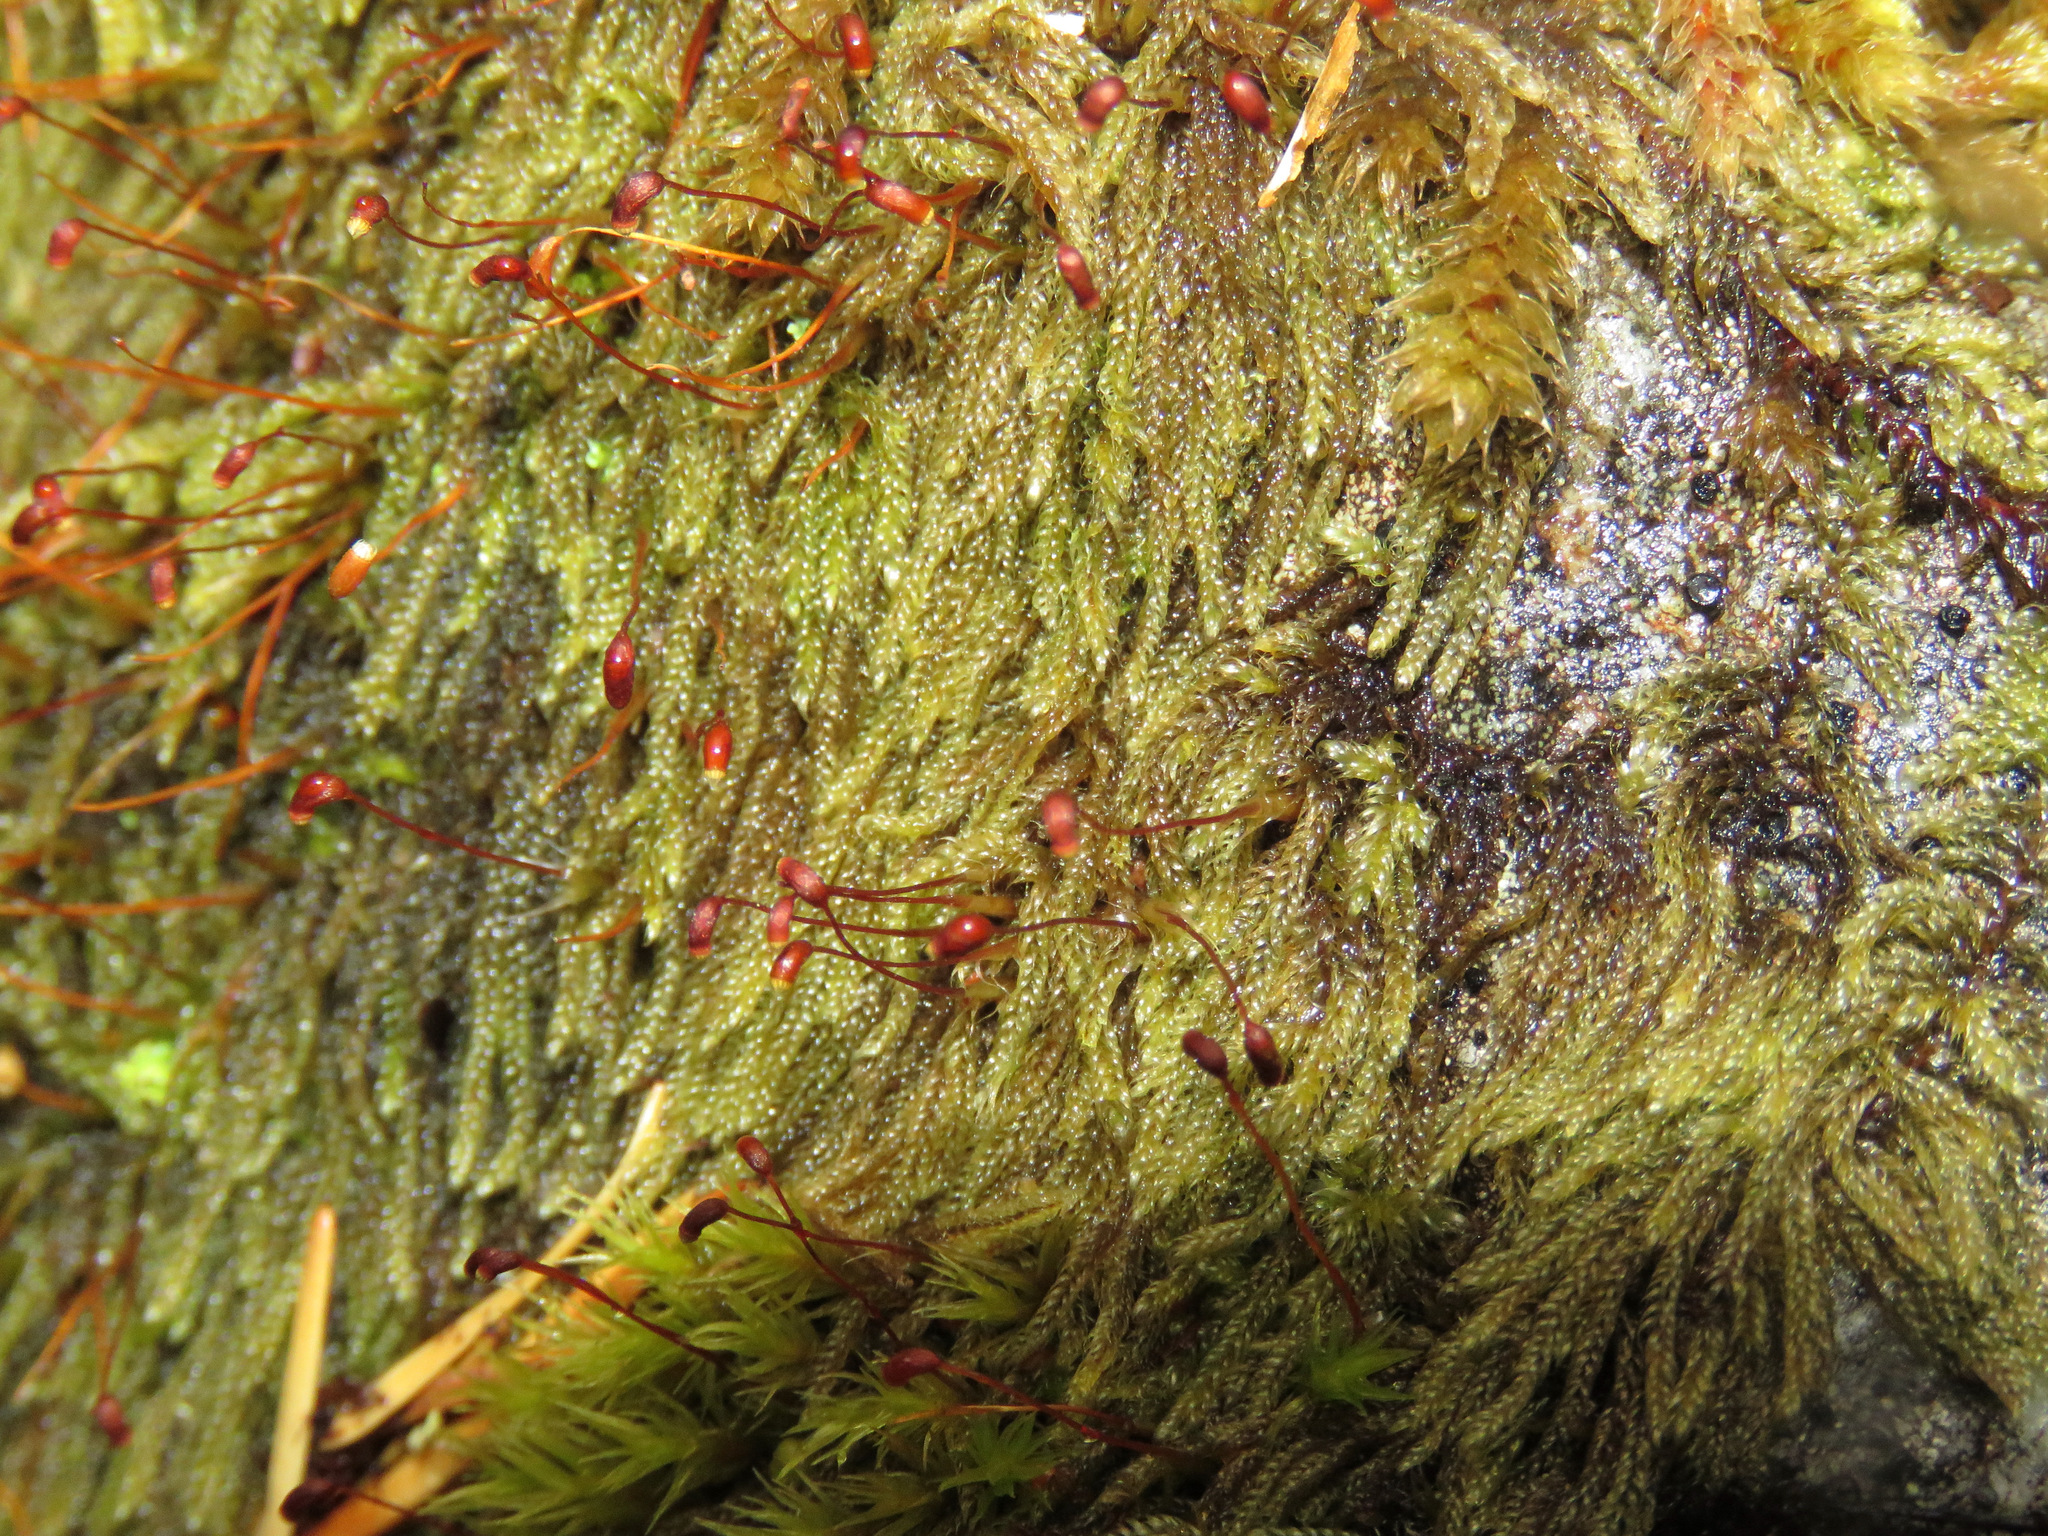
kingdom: Plantae
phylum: Bryophyta
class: Bryopsida
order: Hypnales
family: Pylaisiadelphaceae
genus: Trochophyllohypnum
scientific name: Trochophyllohypnum circinale
